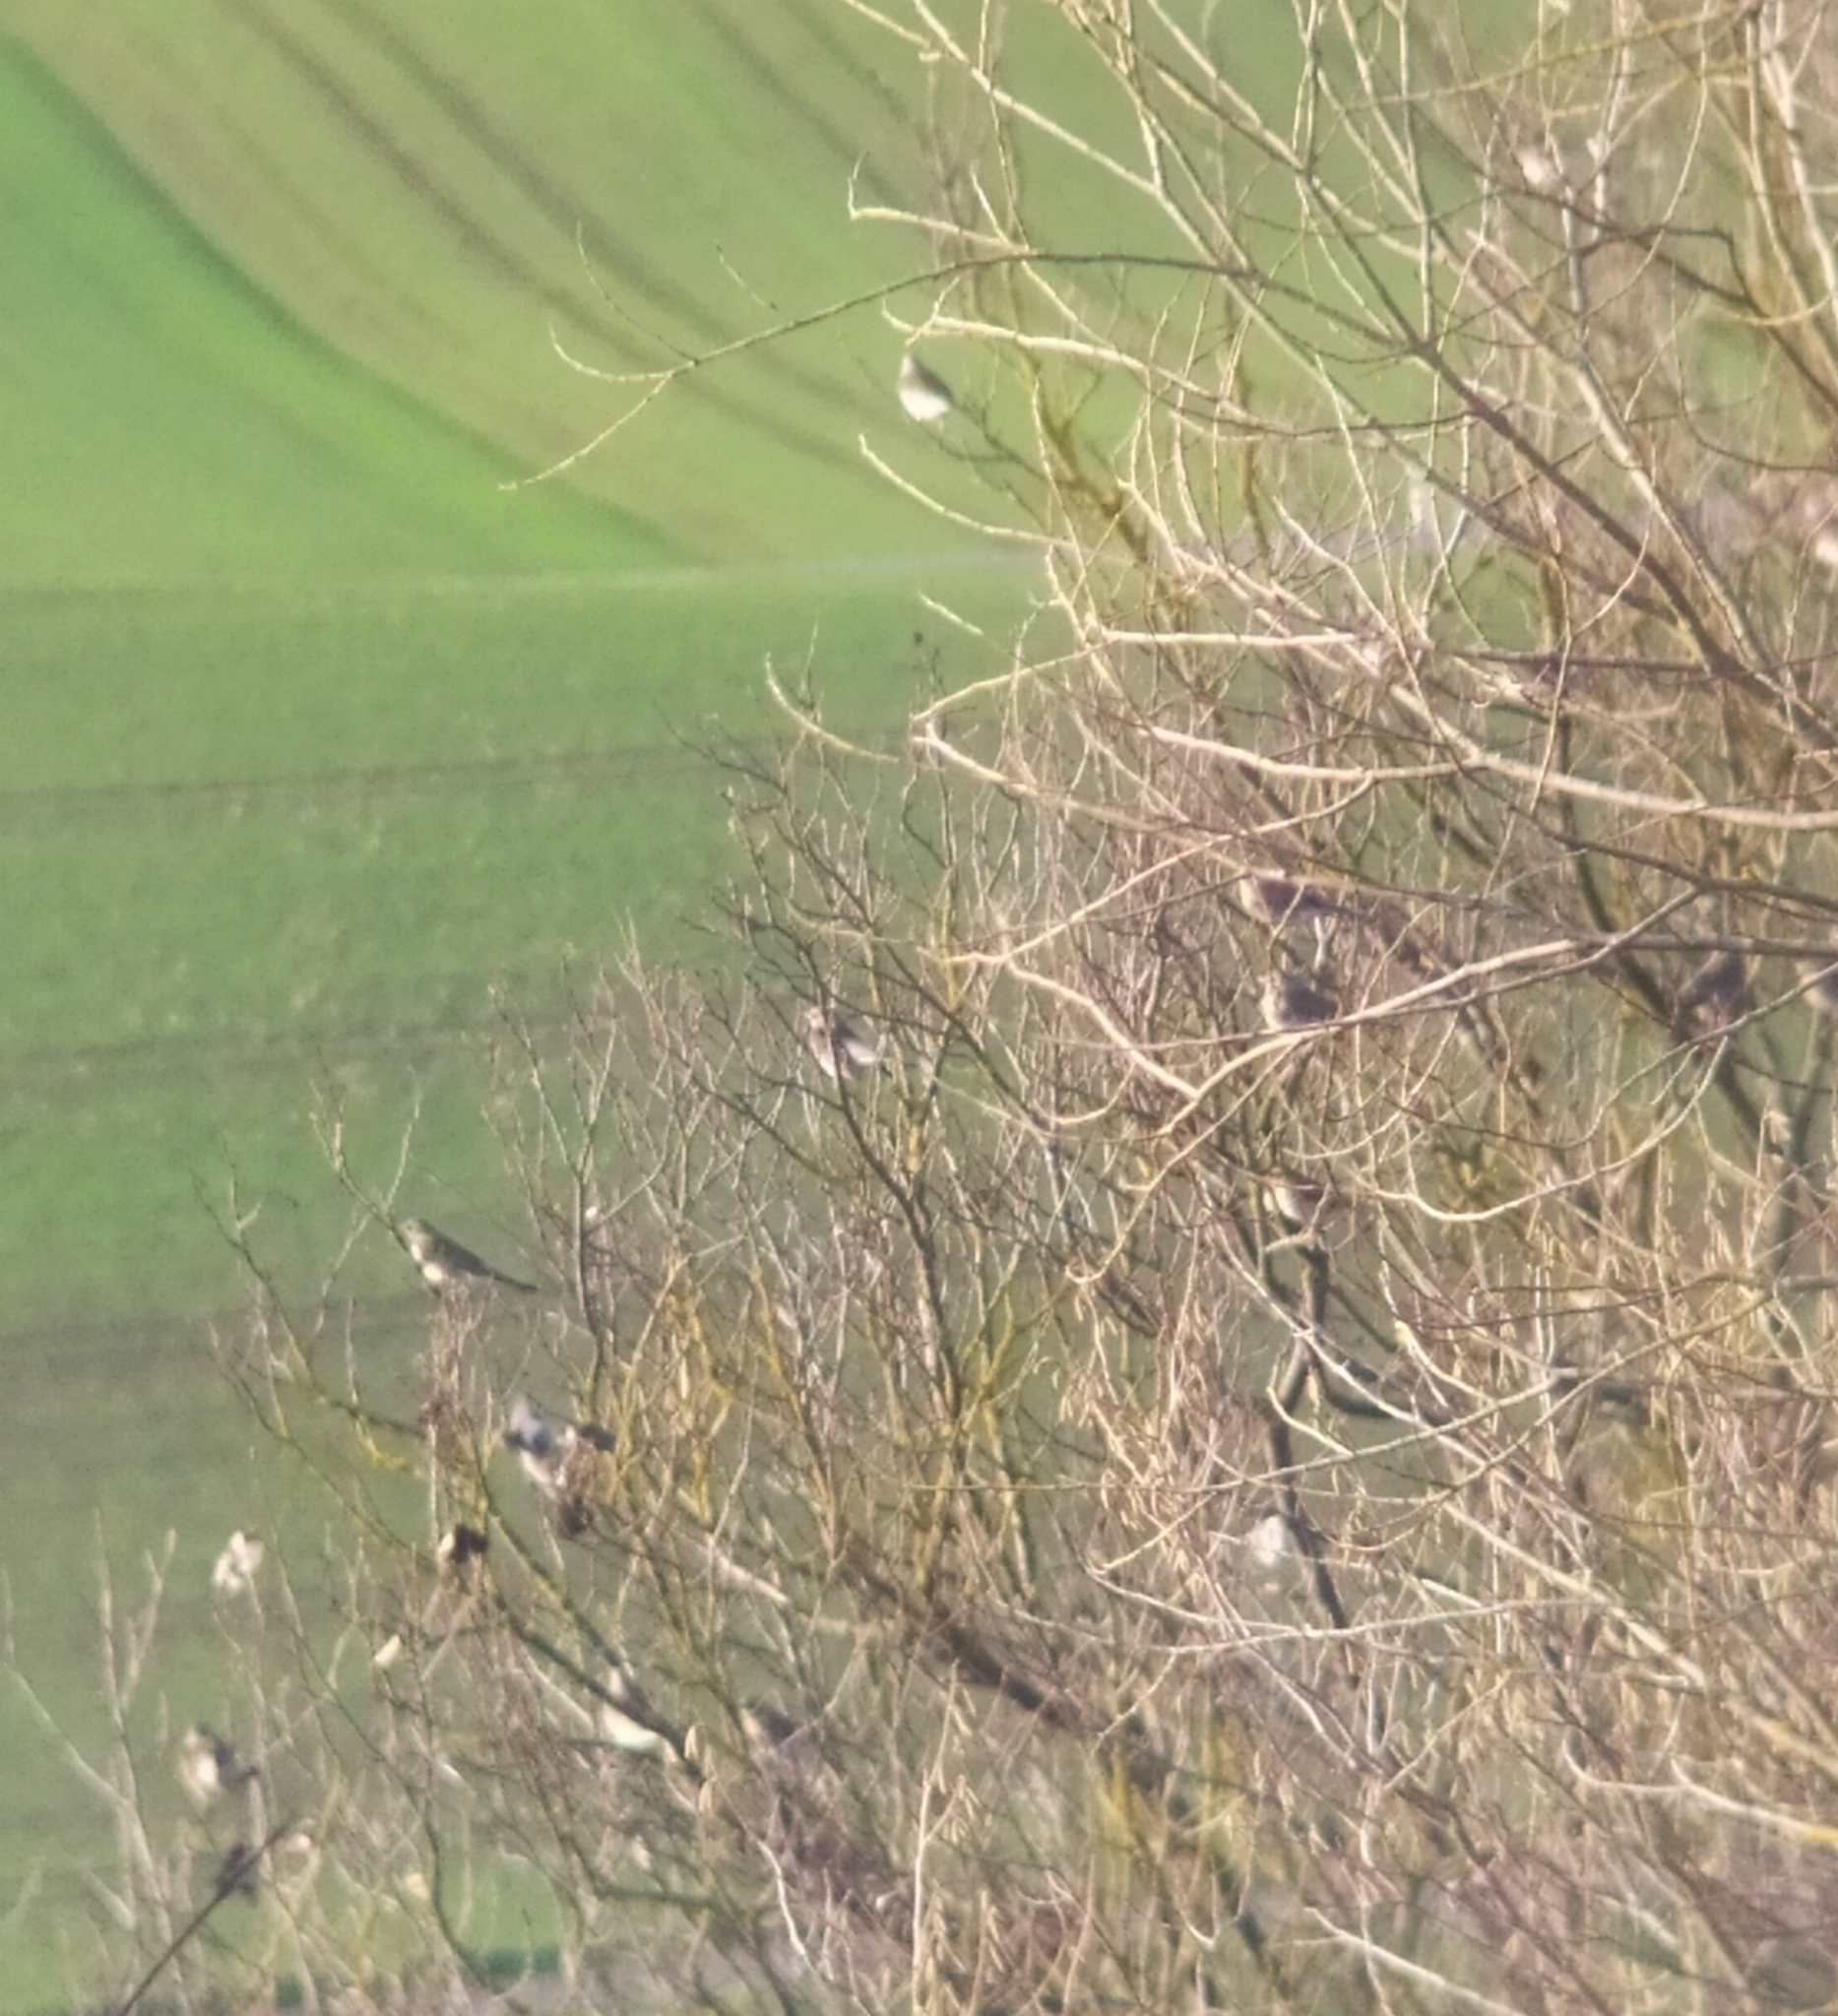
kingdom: Animalia
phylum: Chordata
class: Aves
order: Passeriformes
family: Turdidae
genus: Turdus
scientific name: Turdus pilaris
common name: Fieldfare
